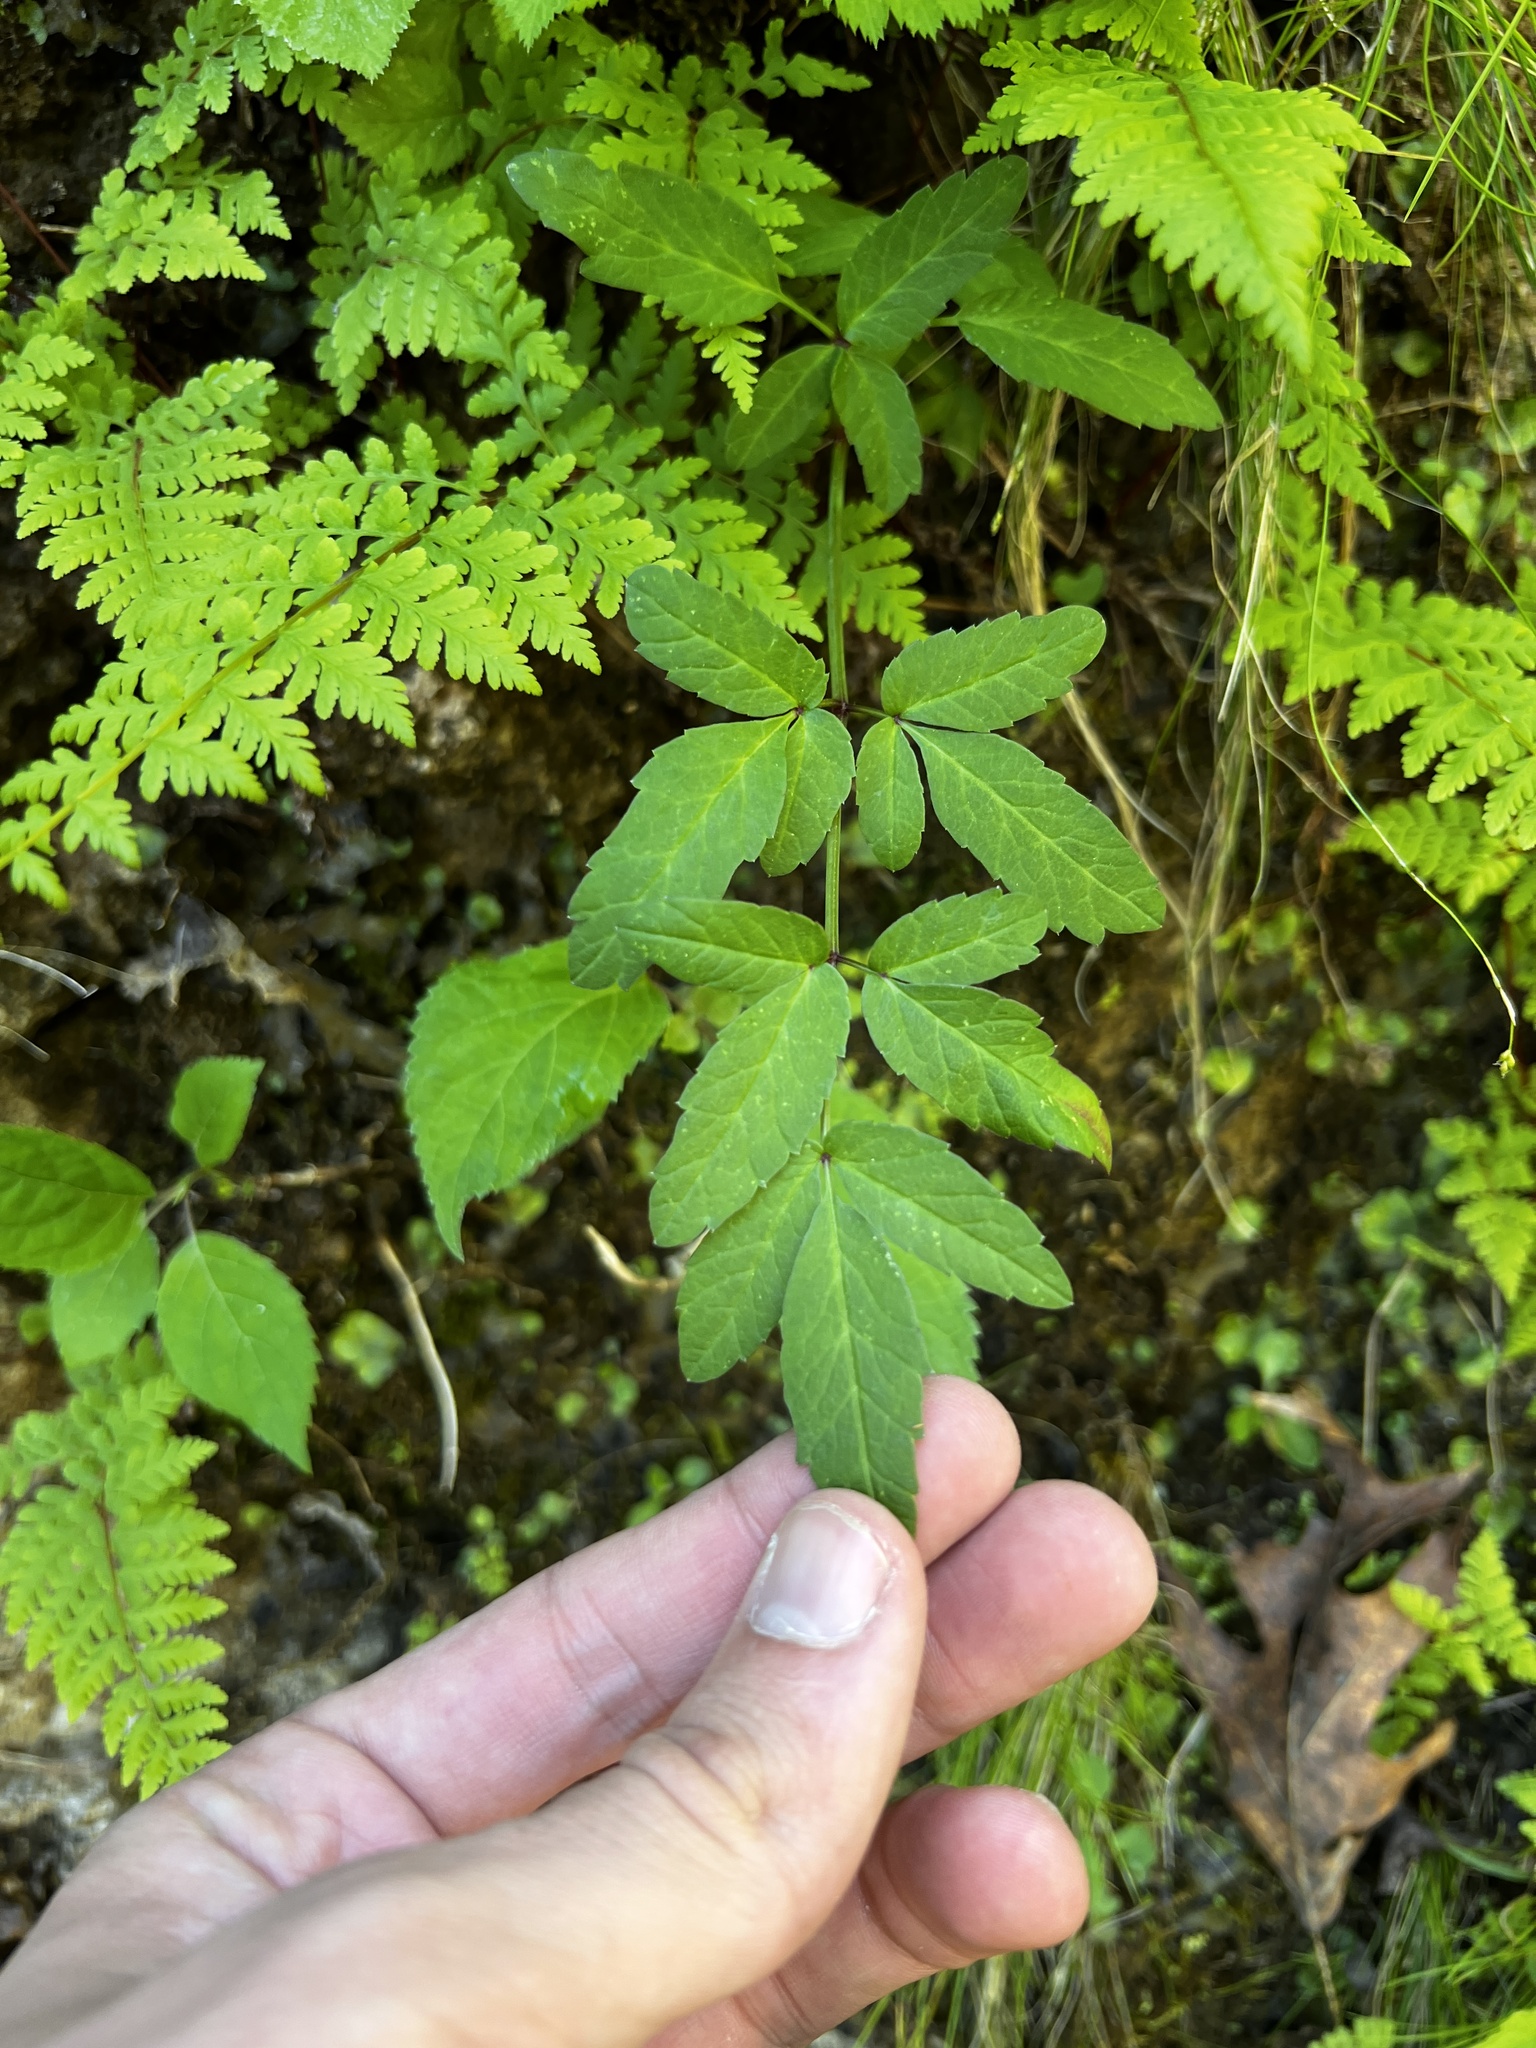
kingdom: Plantae
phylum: Tracheophyta
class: Magnoliopsida
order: Apiales
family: Apiaceae
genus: Cicuta
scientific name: Cicuta maculata
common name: Spotted cowbane
